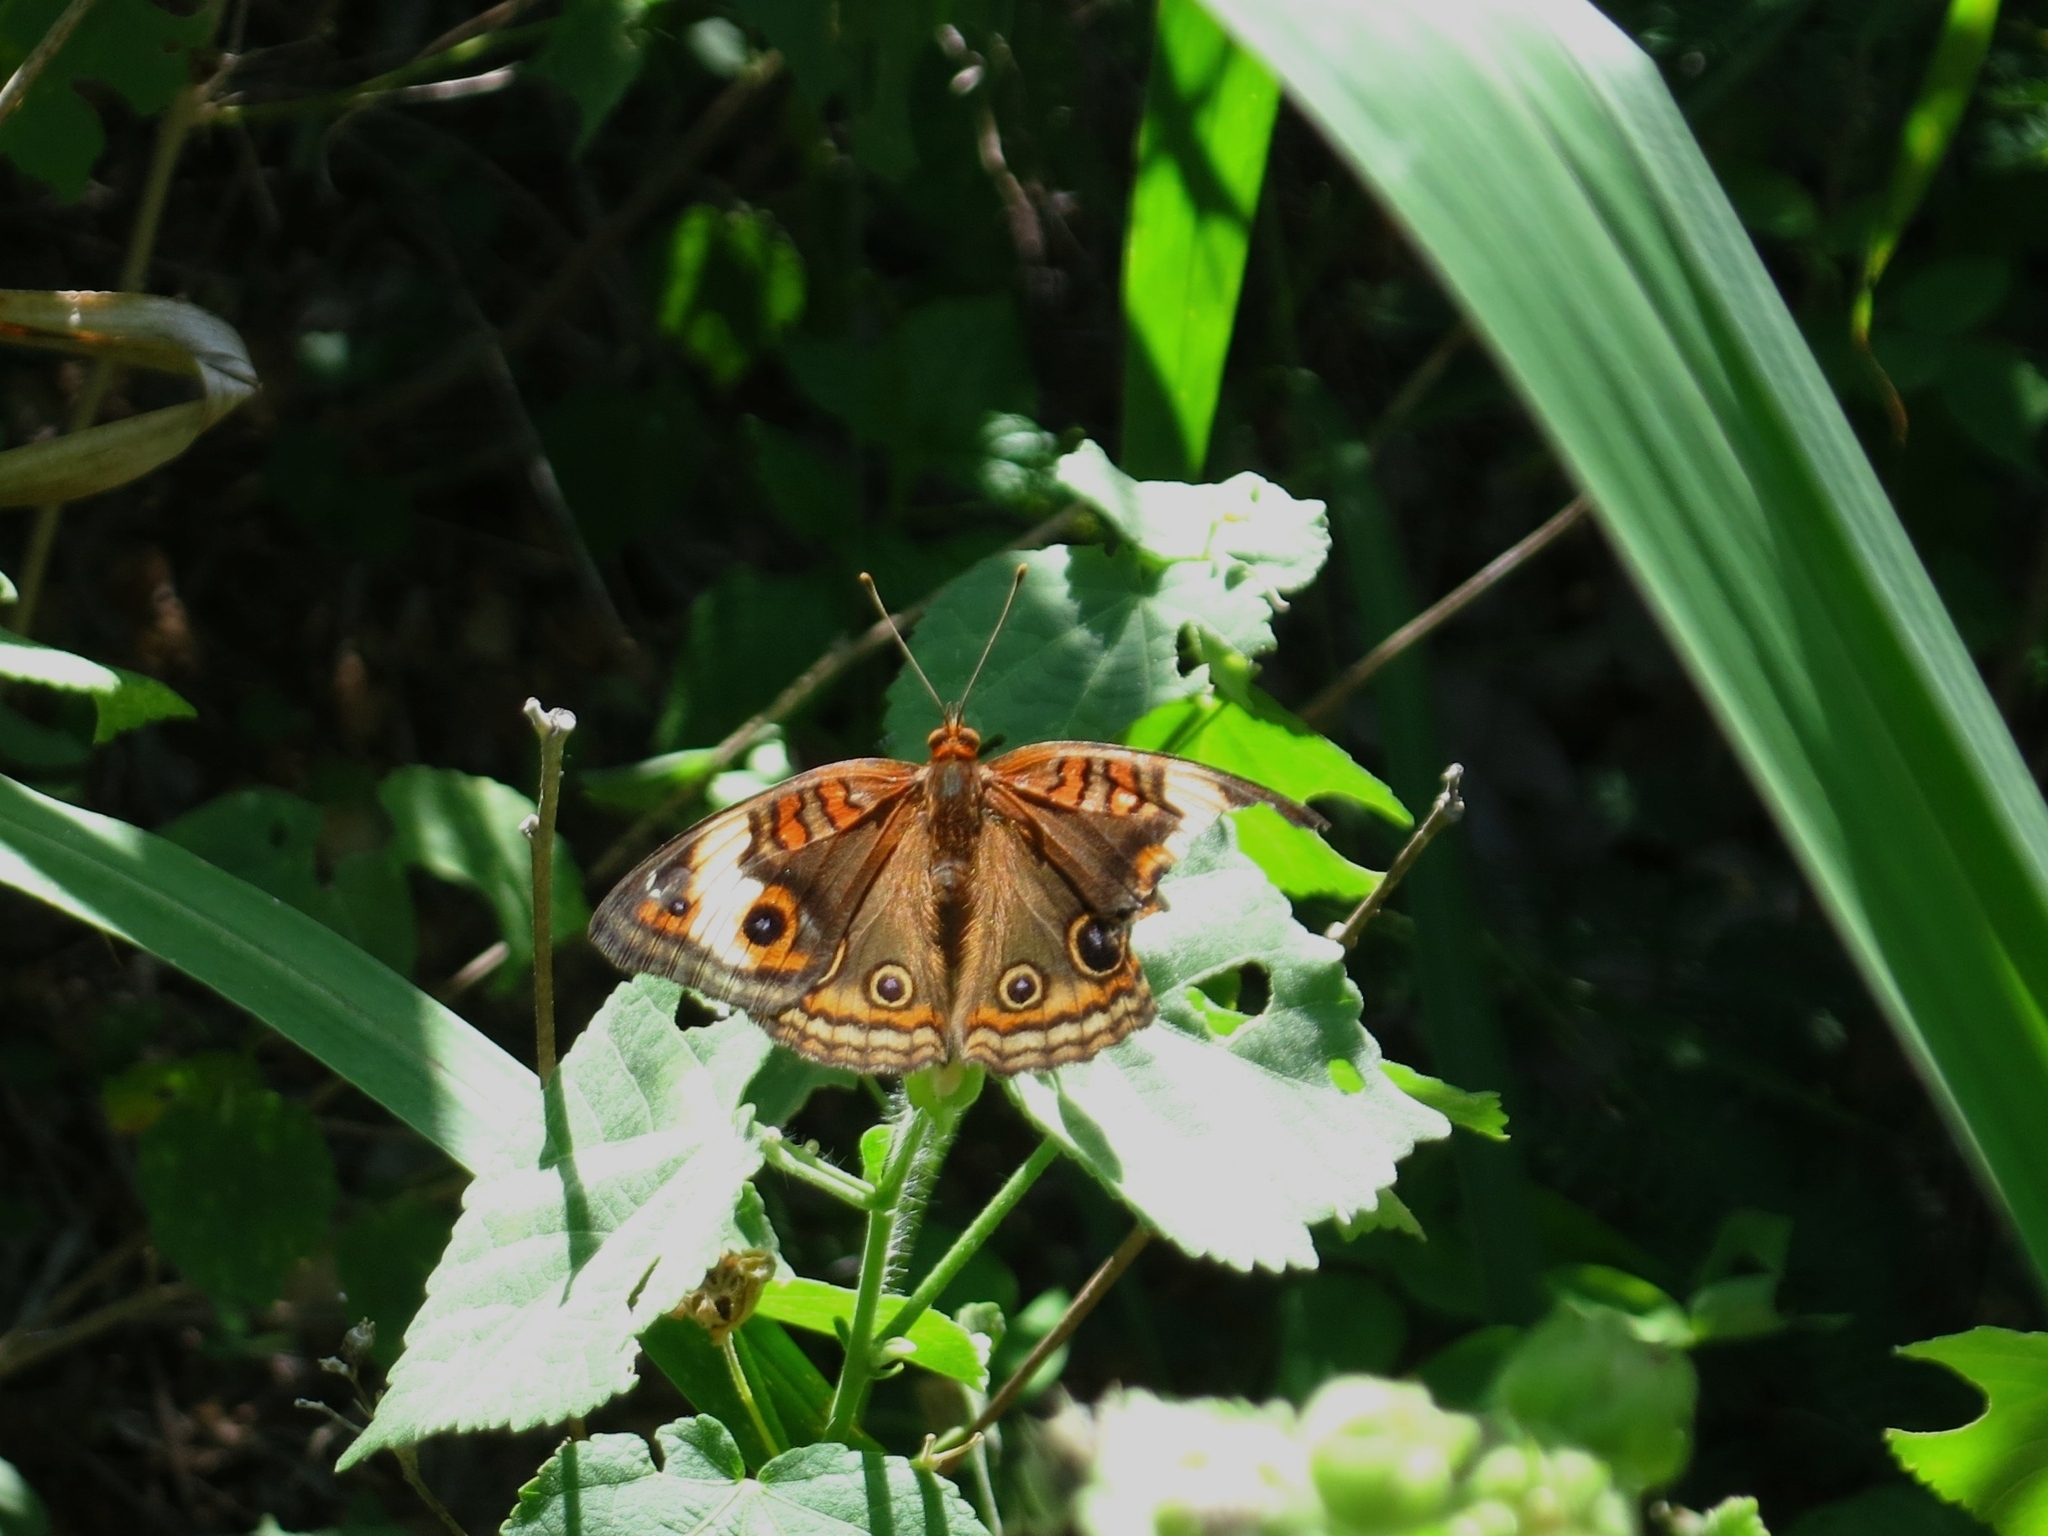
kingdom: Animalia
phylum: Arthropoda
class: Insecta
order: Lepidoptera
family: Nymphalidae
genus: Junonia
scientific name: Junonia lavinia
